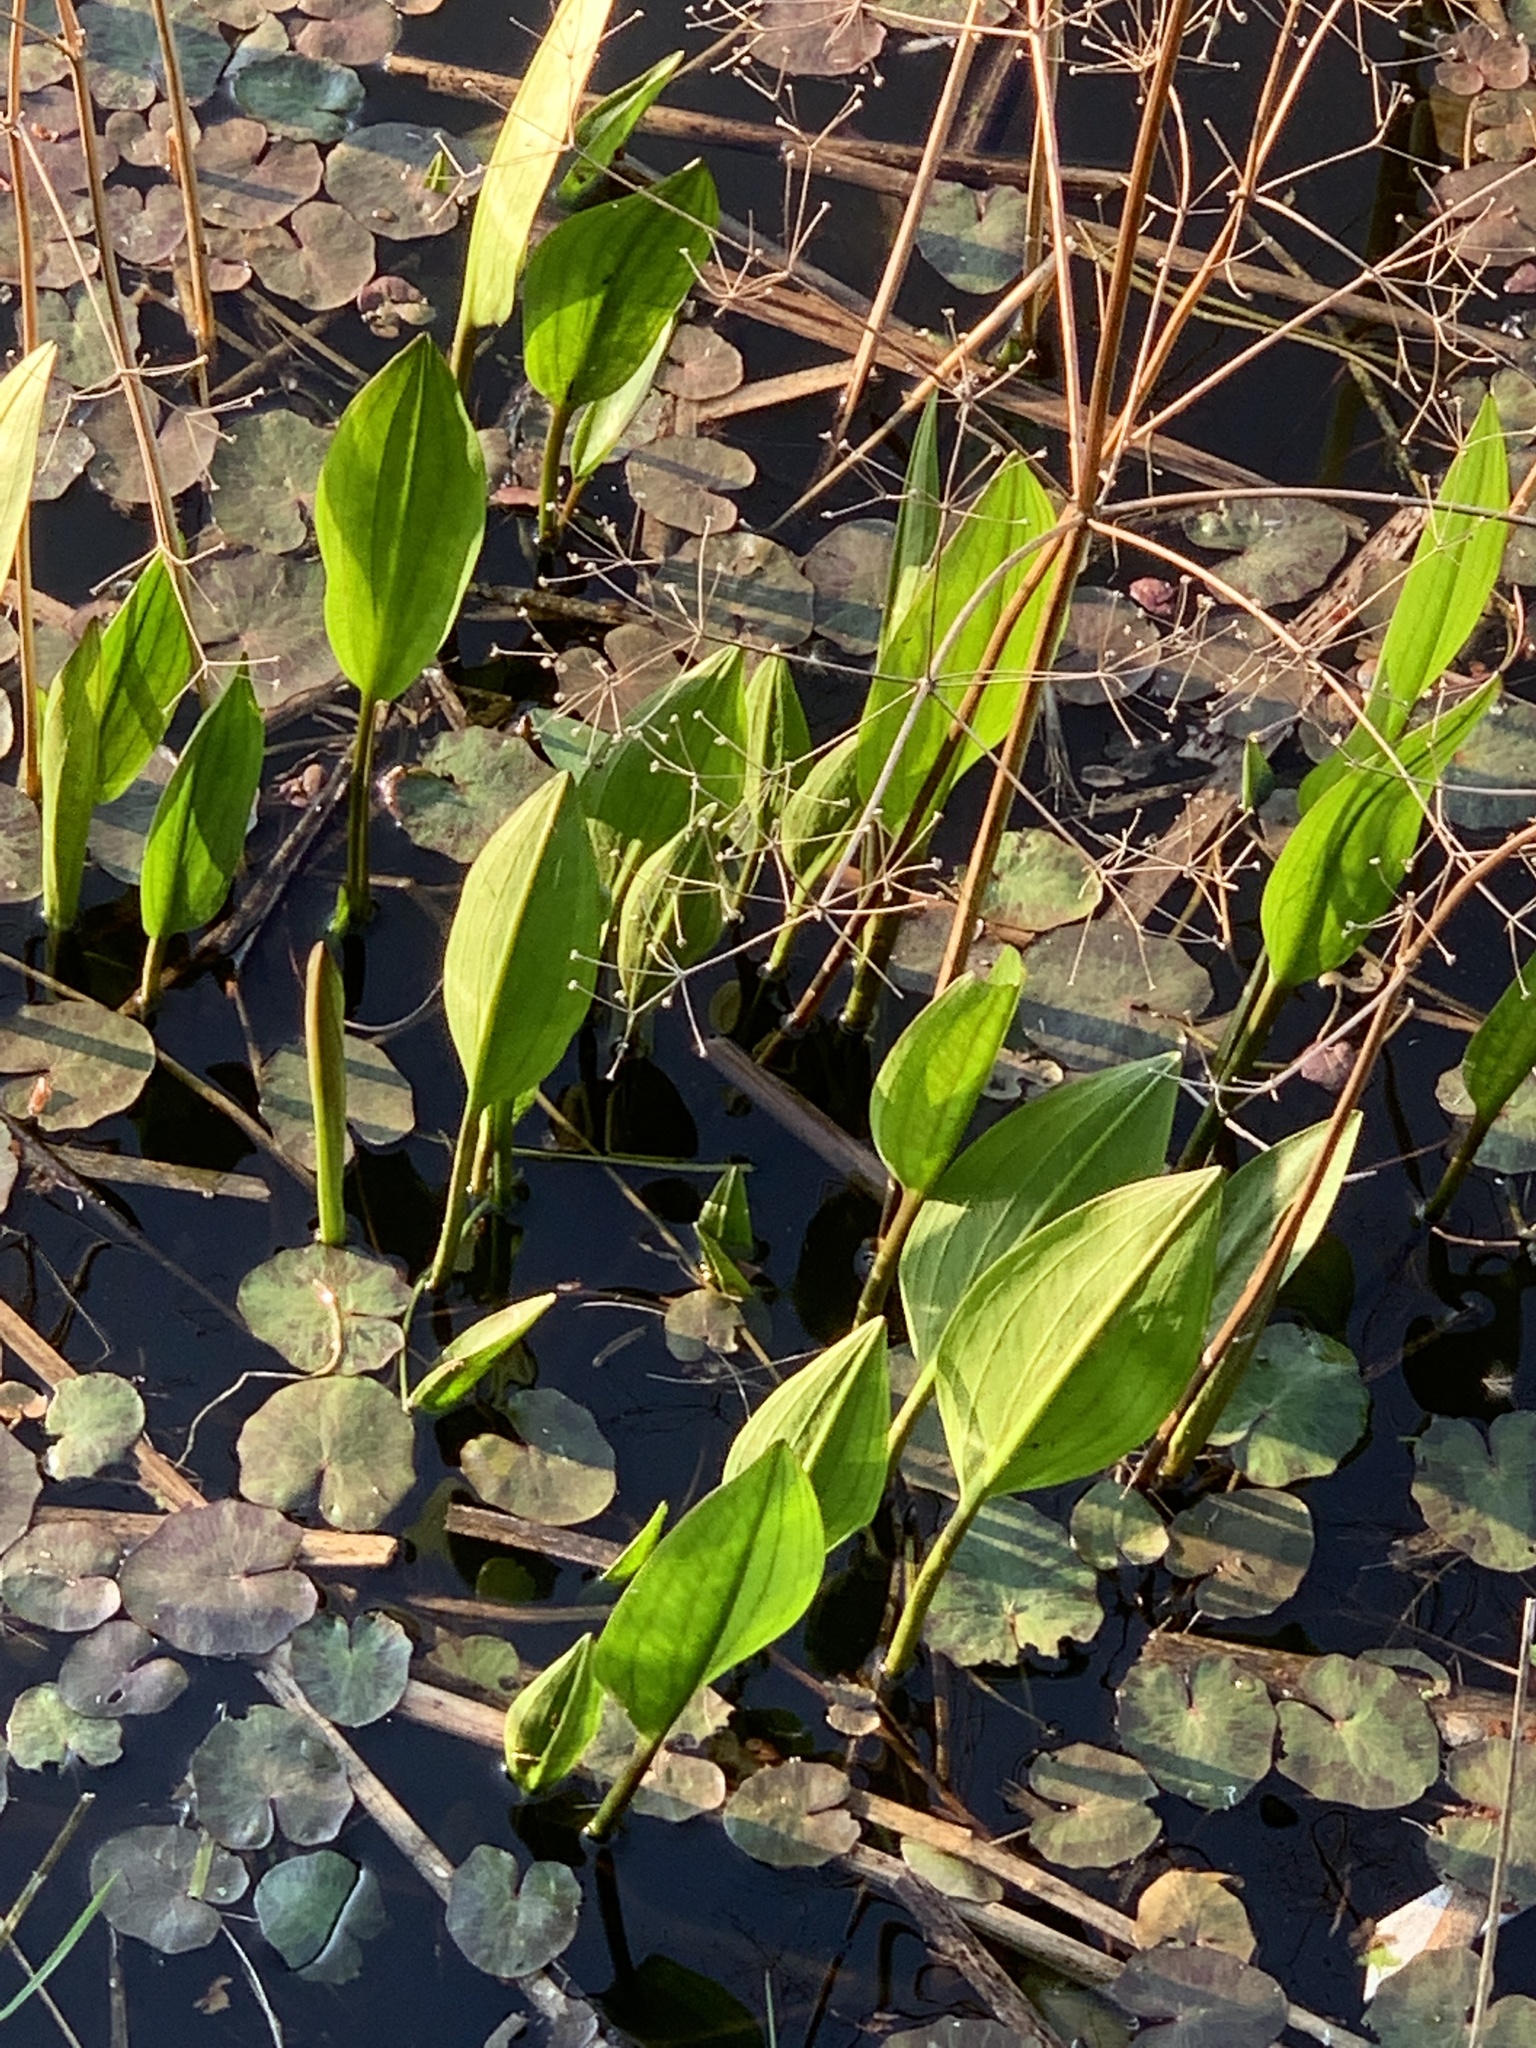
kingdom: Plantae
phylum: Tracheophyta
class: Liliopsida
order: Alismatales
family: Alismataceae
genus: Alisma
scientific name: Alisma plantago-aquatica
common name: Water-plantain
